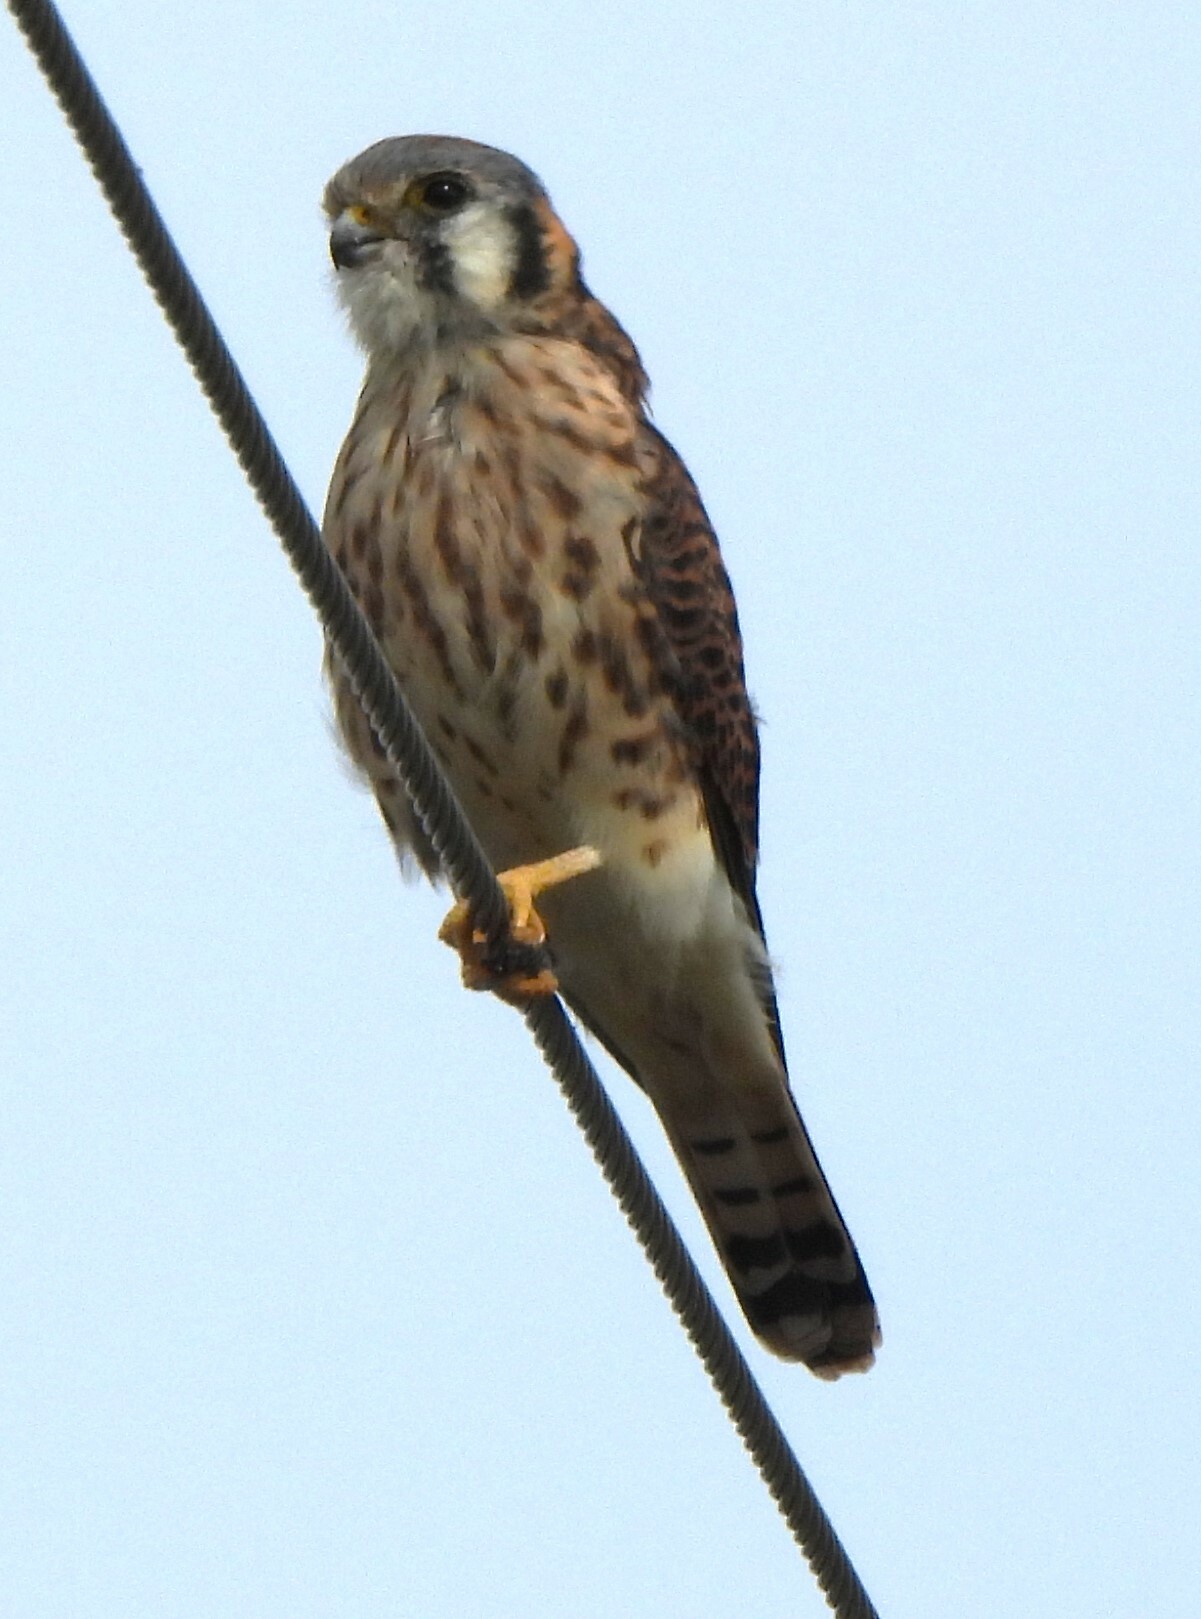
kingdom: Animalia
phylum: Chordata
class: Aves
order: Falconiformes
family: Falconidae
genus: Falco
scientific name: Falco sparverius
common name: American kestrel
